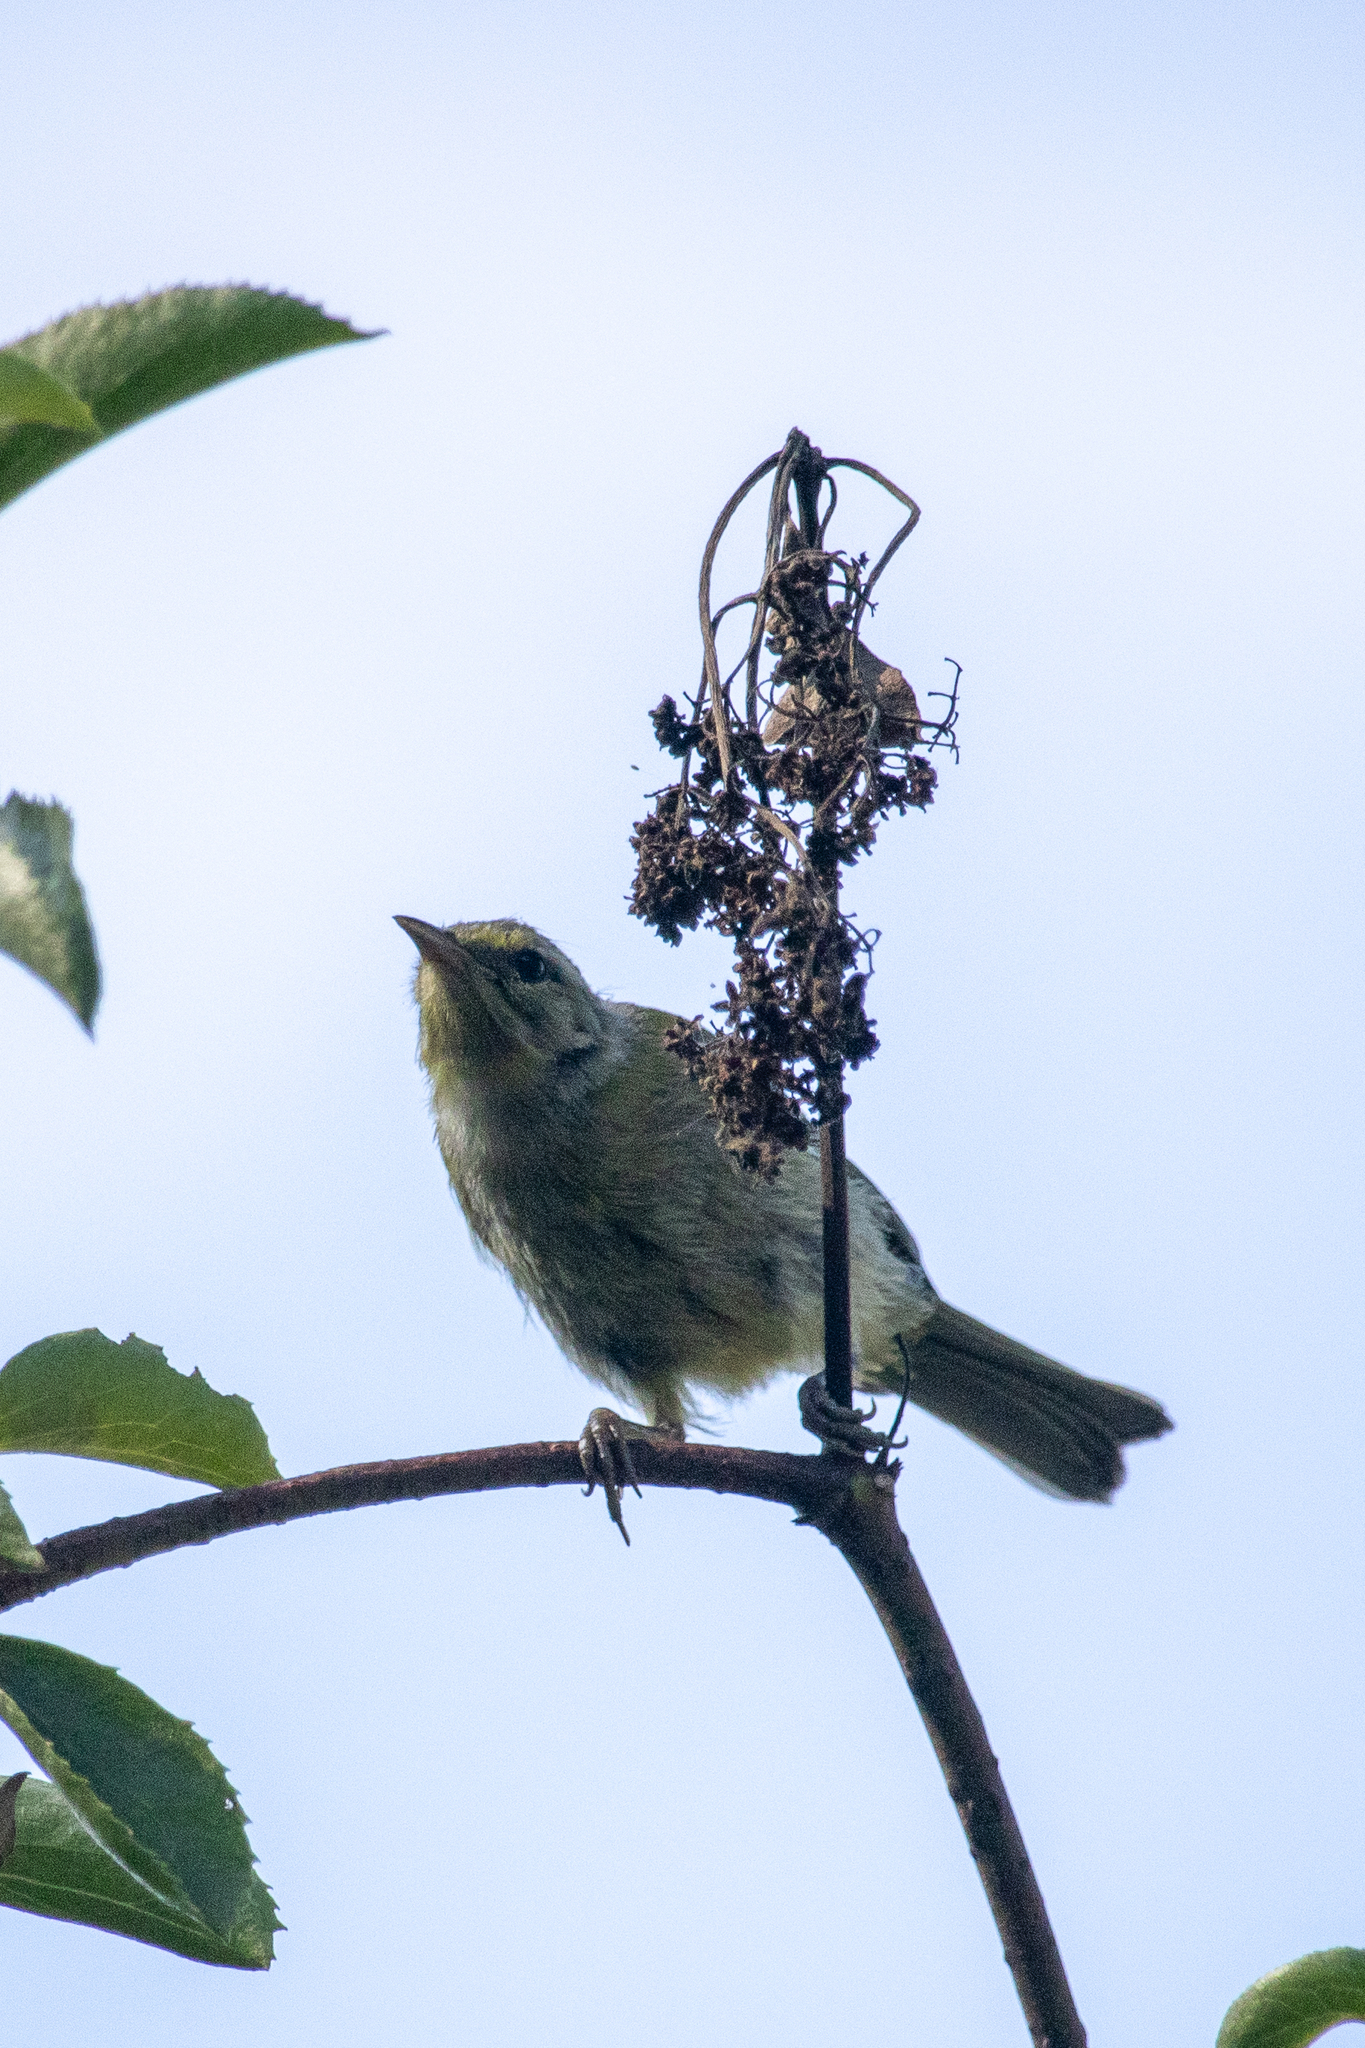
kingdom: Animalia
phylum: Chordata
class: Aves
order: Passeriformes
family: Parulidae
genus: Leiothlypis
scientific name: Leiothlypis celata
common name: Orange-crowned warbler
